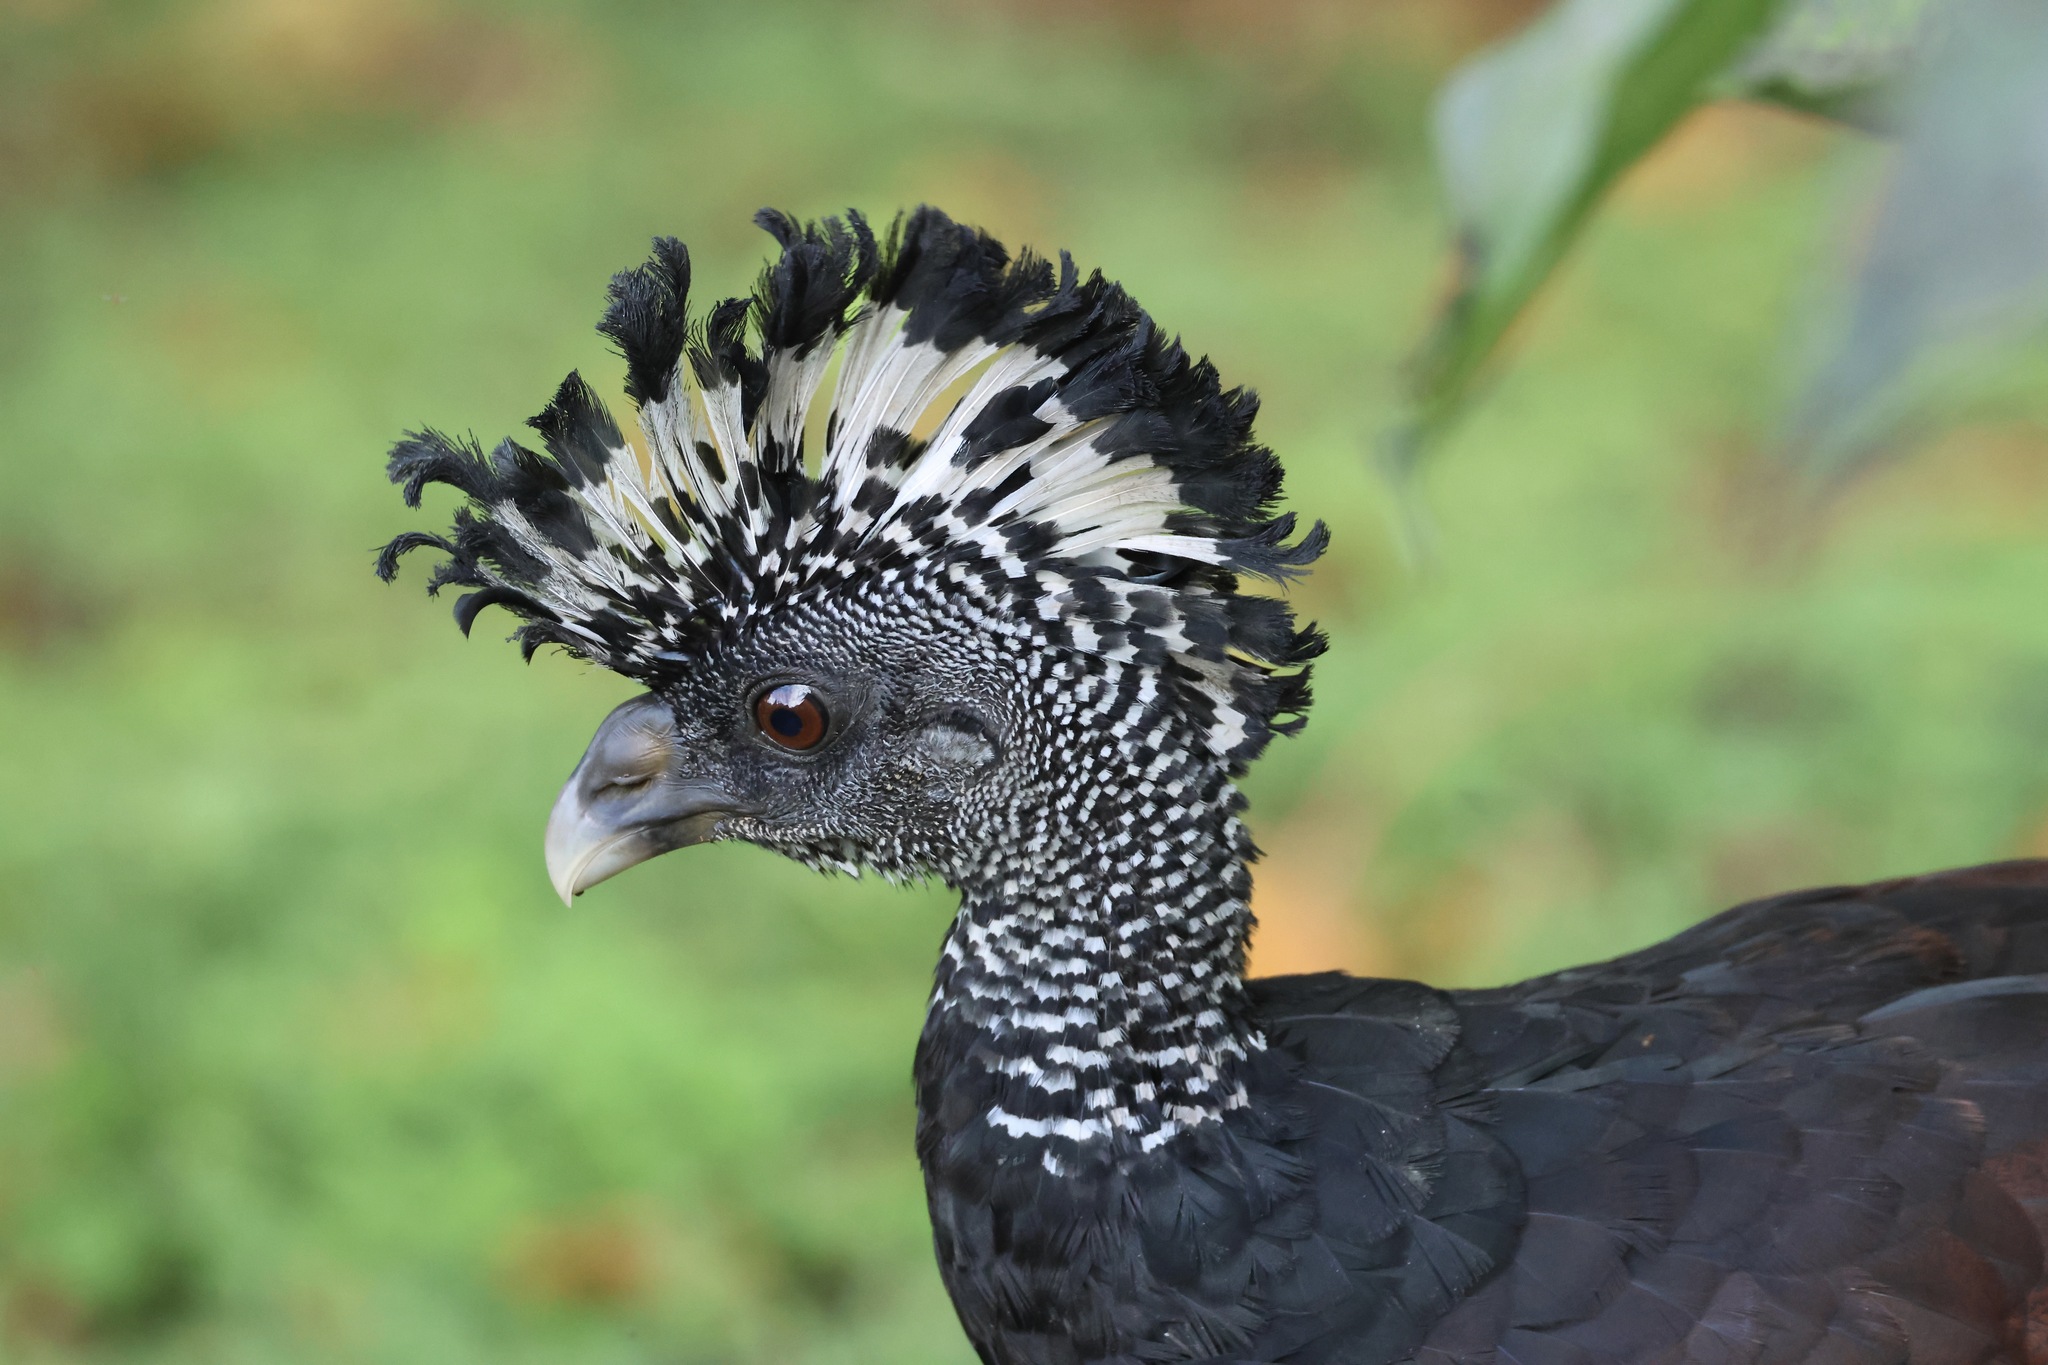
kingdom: Animalia
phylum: Chordata
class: Aves
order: Galliformes
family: Cracidae
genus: Crax
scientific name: Crax rubra
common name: Great curassow
